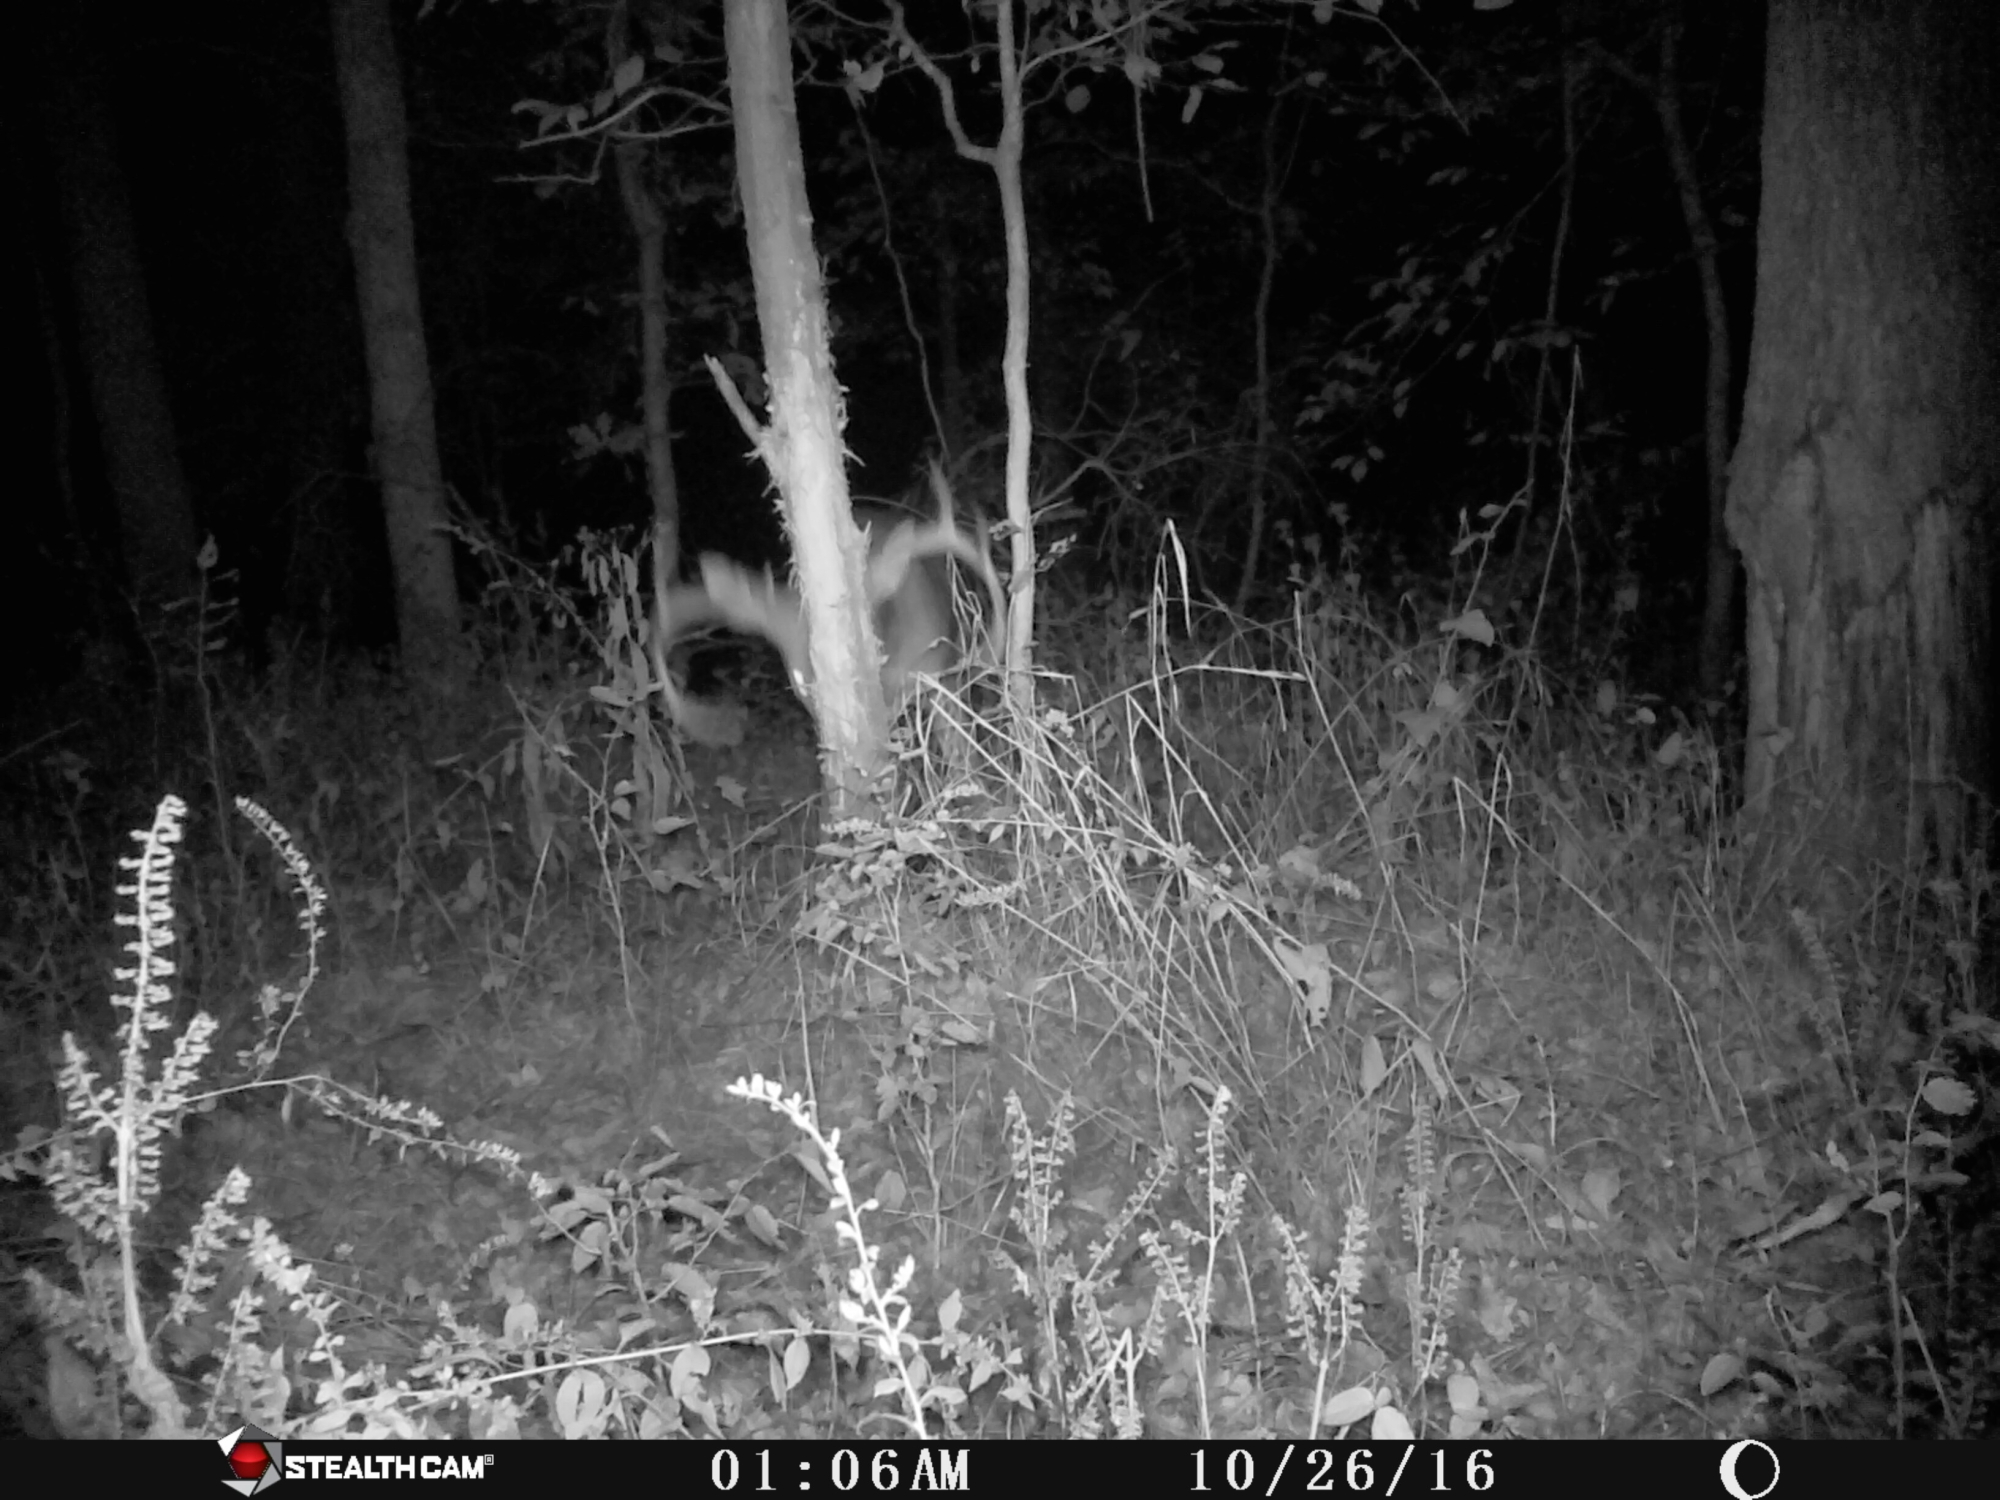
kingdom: Animalia
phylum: Chordata
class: Mammalia
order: Artiodactyla
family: Cervidae
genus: Odocoileus
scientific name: Odocoileus virginianus
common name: White-tailed deer
